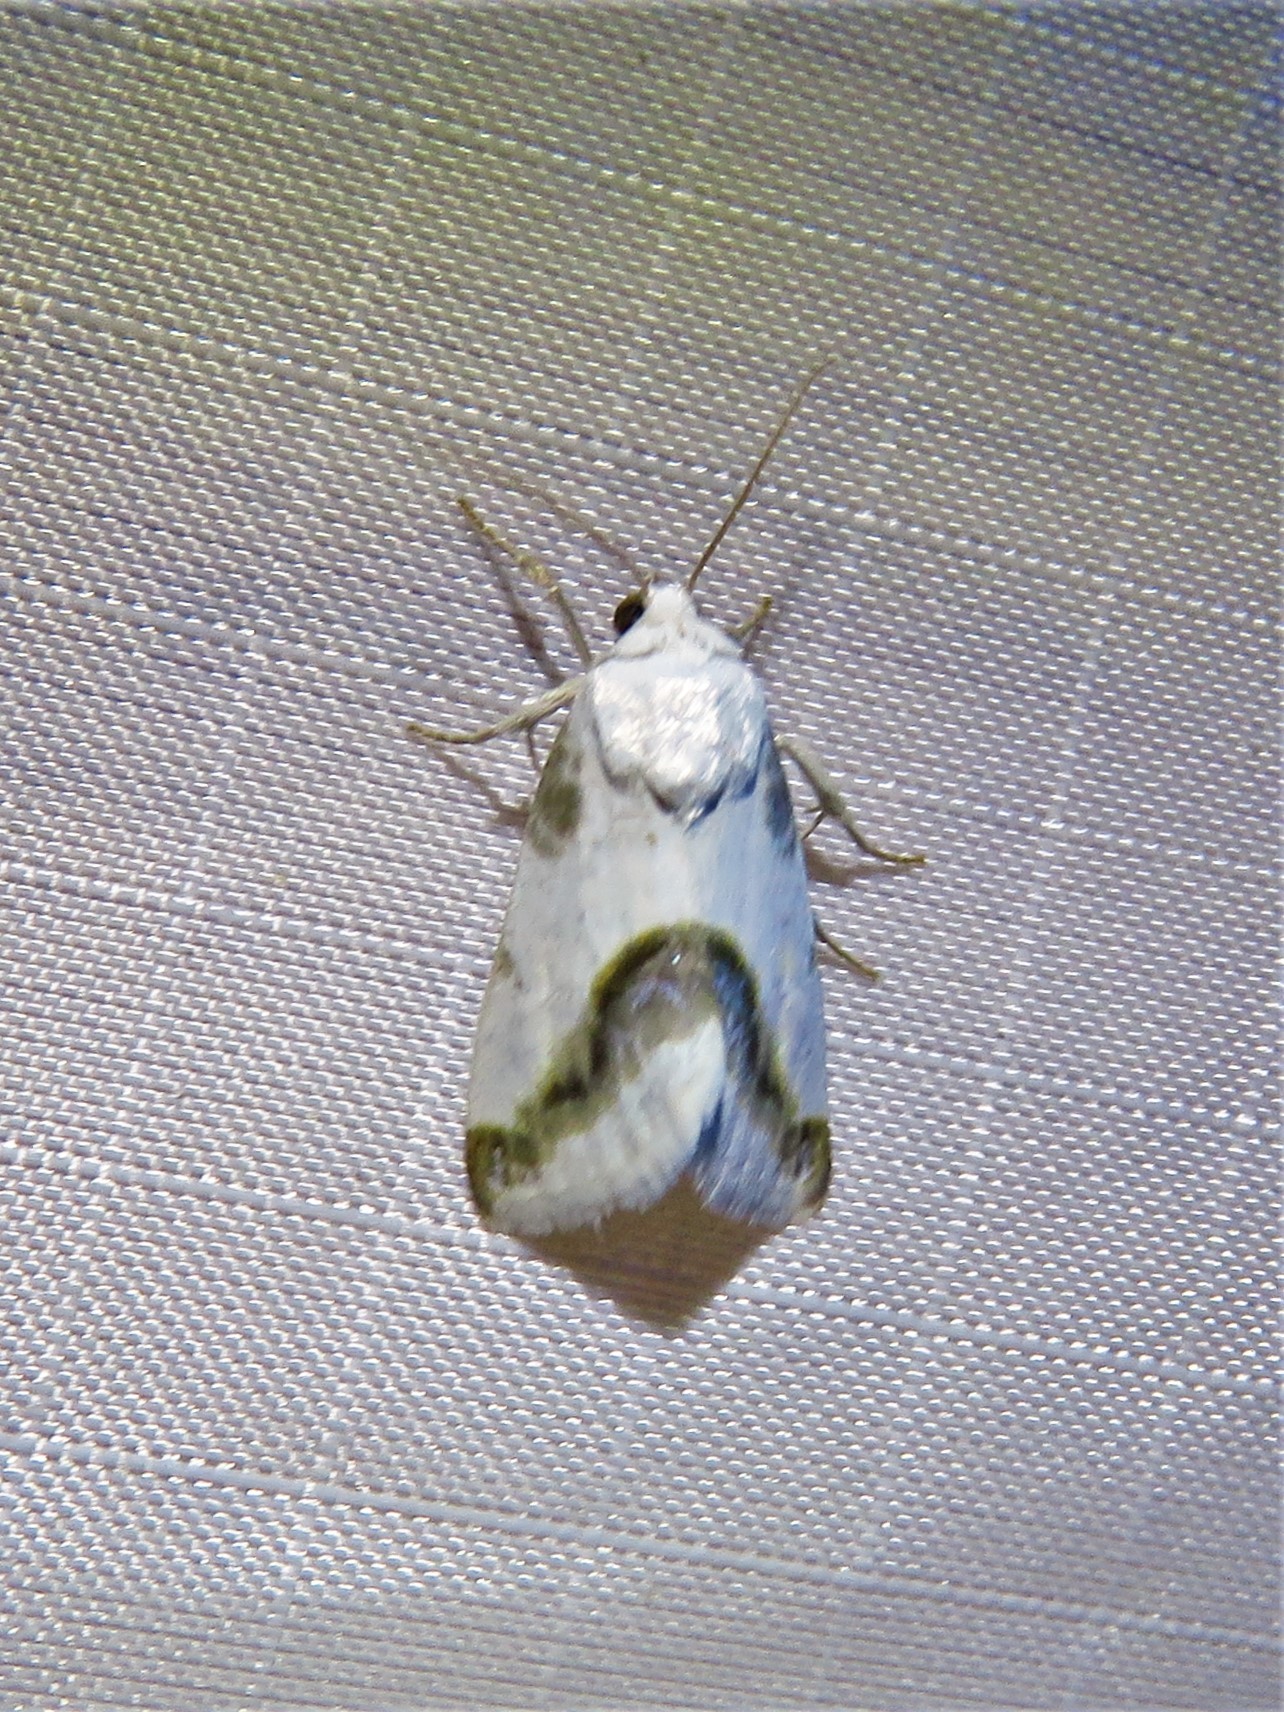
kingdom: Animalia
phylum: Arthropoda
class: Insecta
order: Lepidoptera
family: Noctuidae
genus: Acontia
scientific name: Acontia cretata
